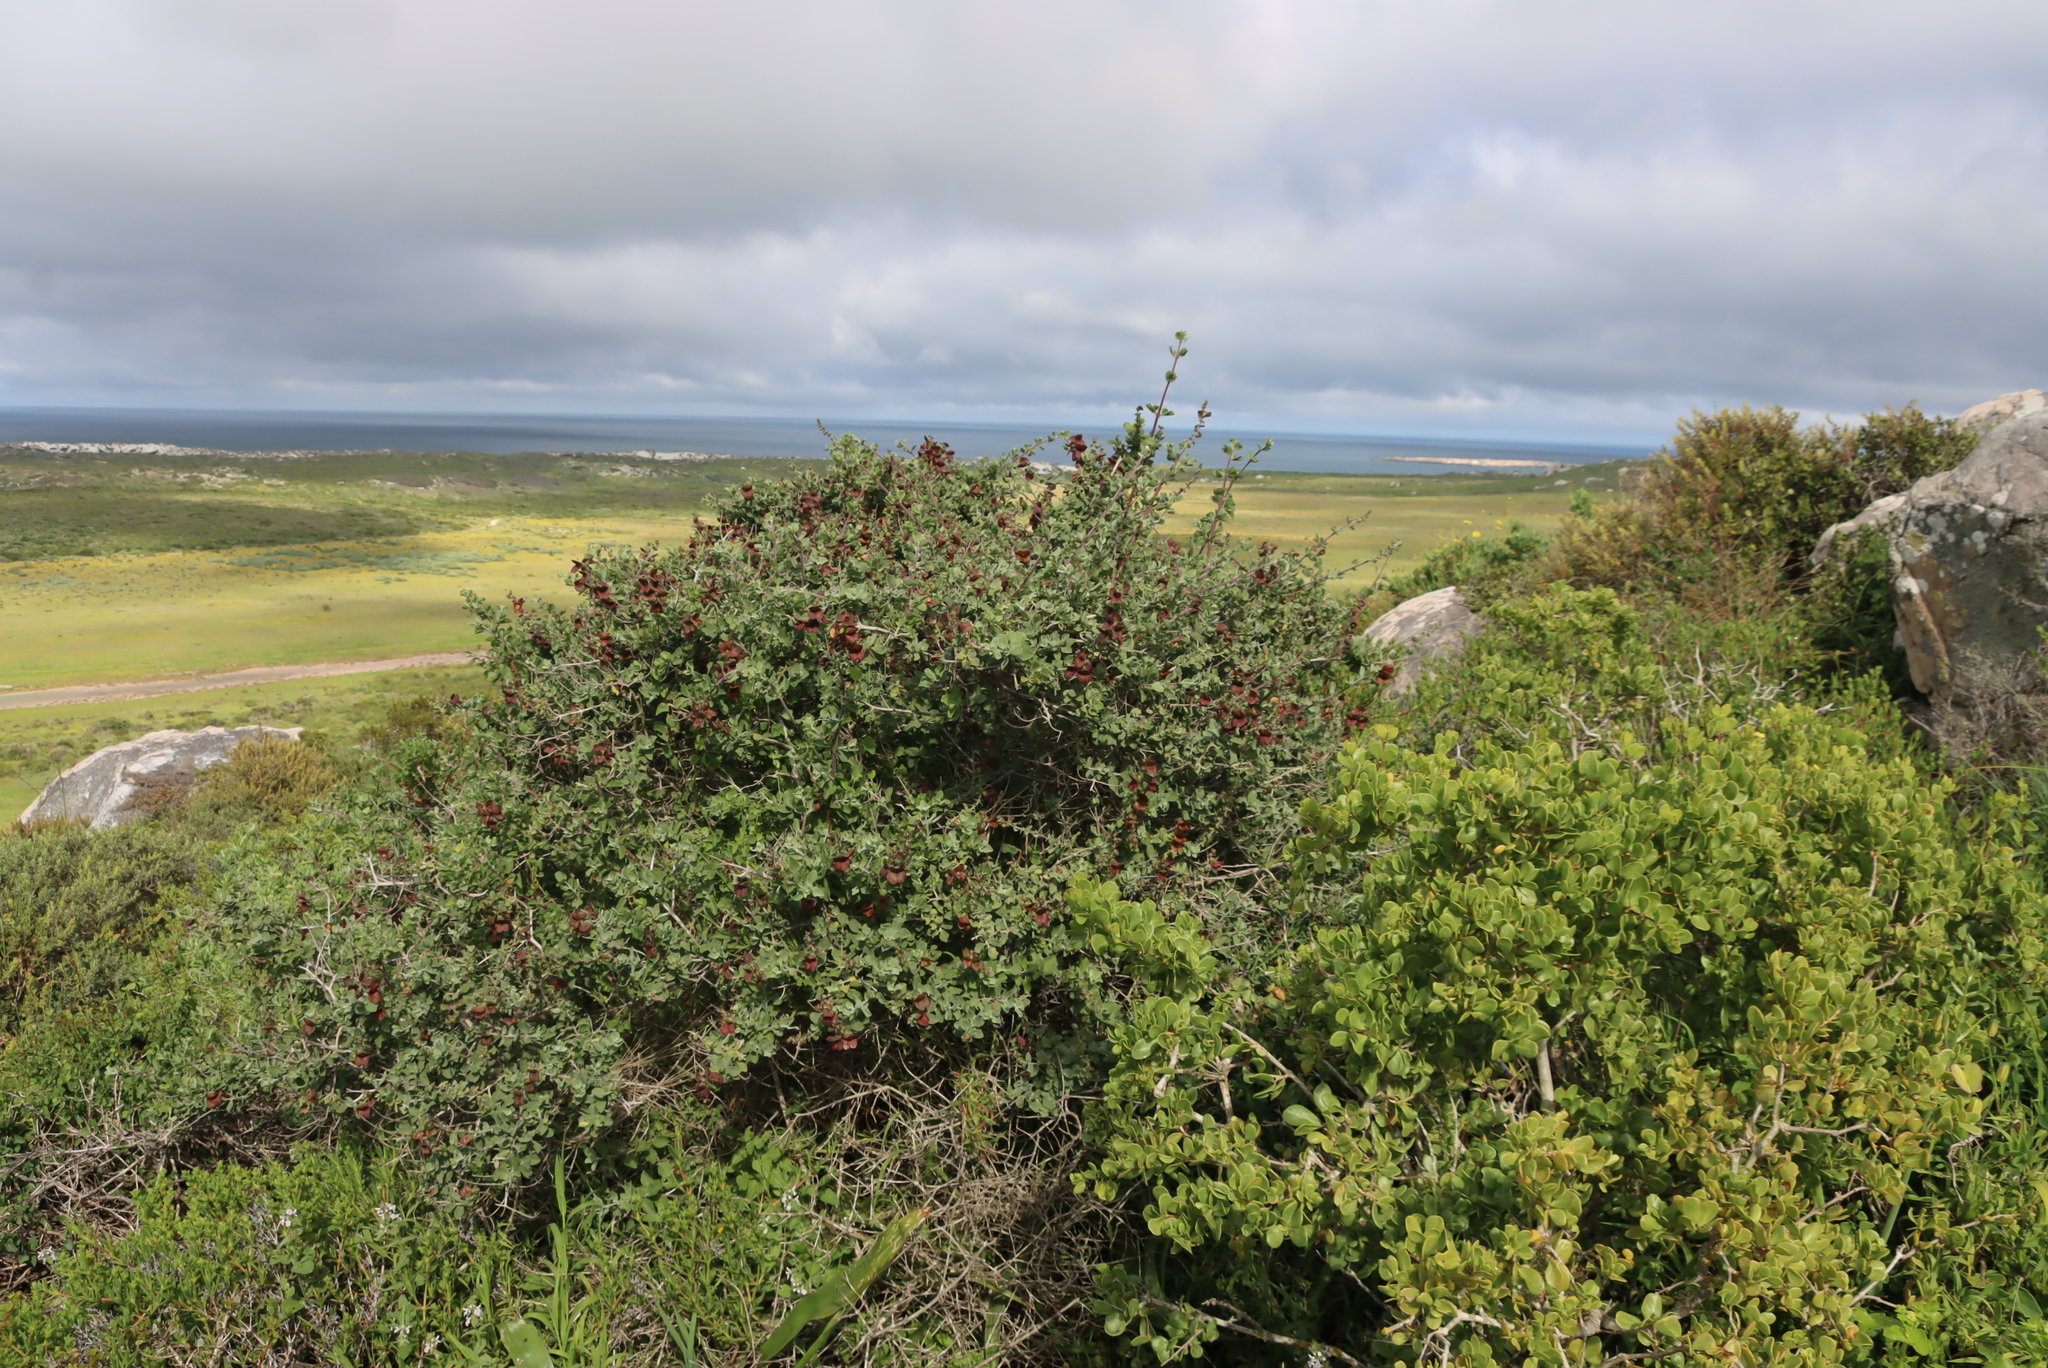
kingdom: Plantae
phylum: Tracheophyta
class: Magnoliopsida
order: Lamiales
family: Lamiaceae
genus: Salvia
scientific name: Salvia aurea
